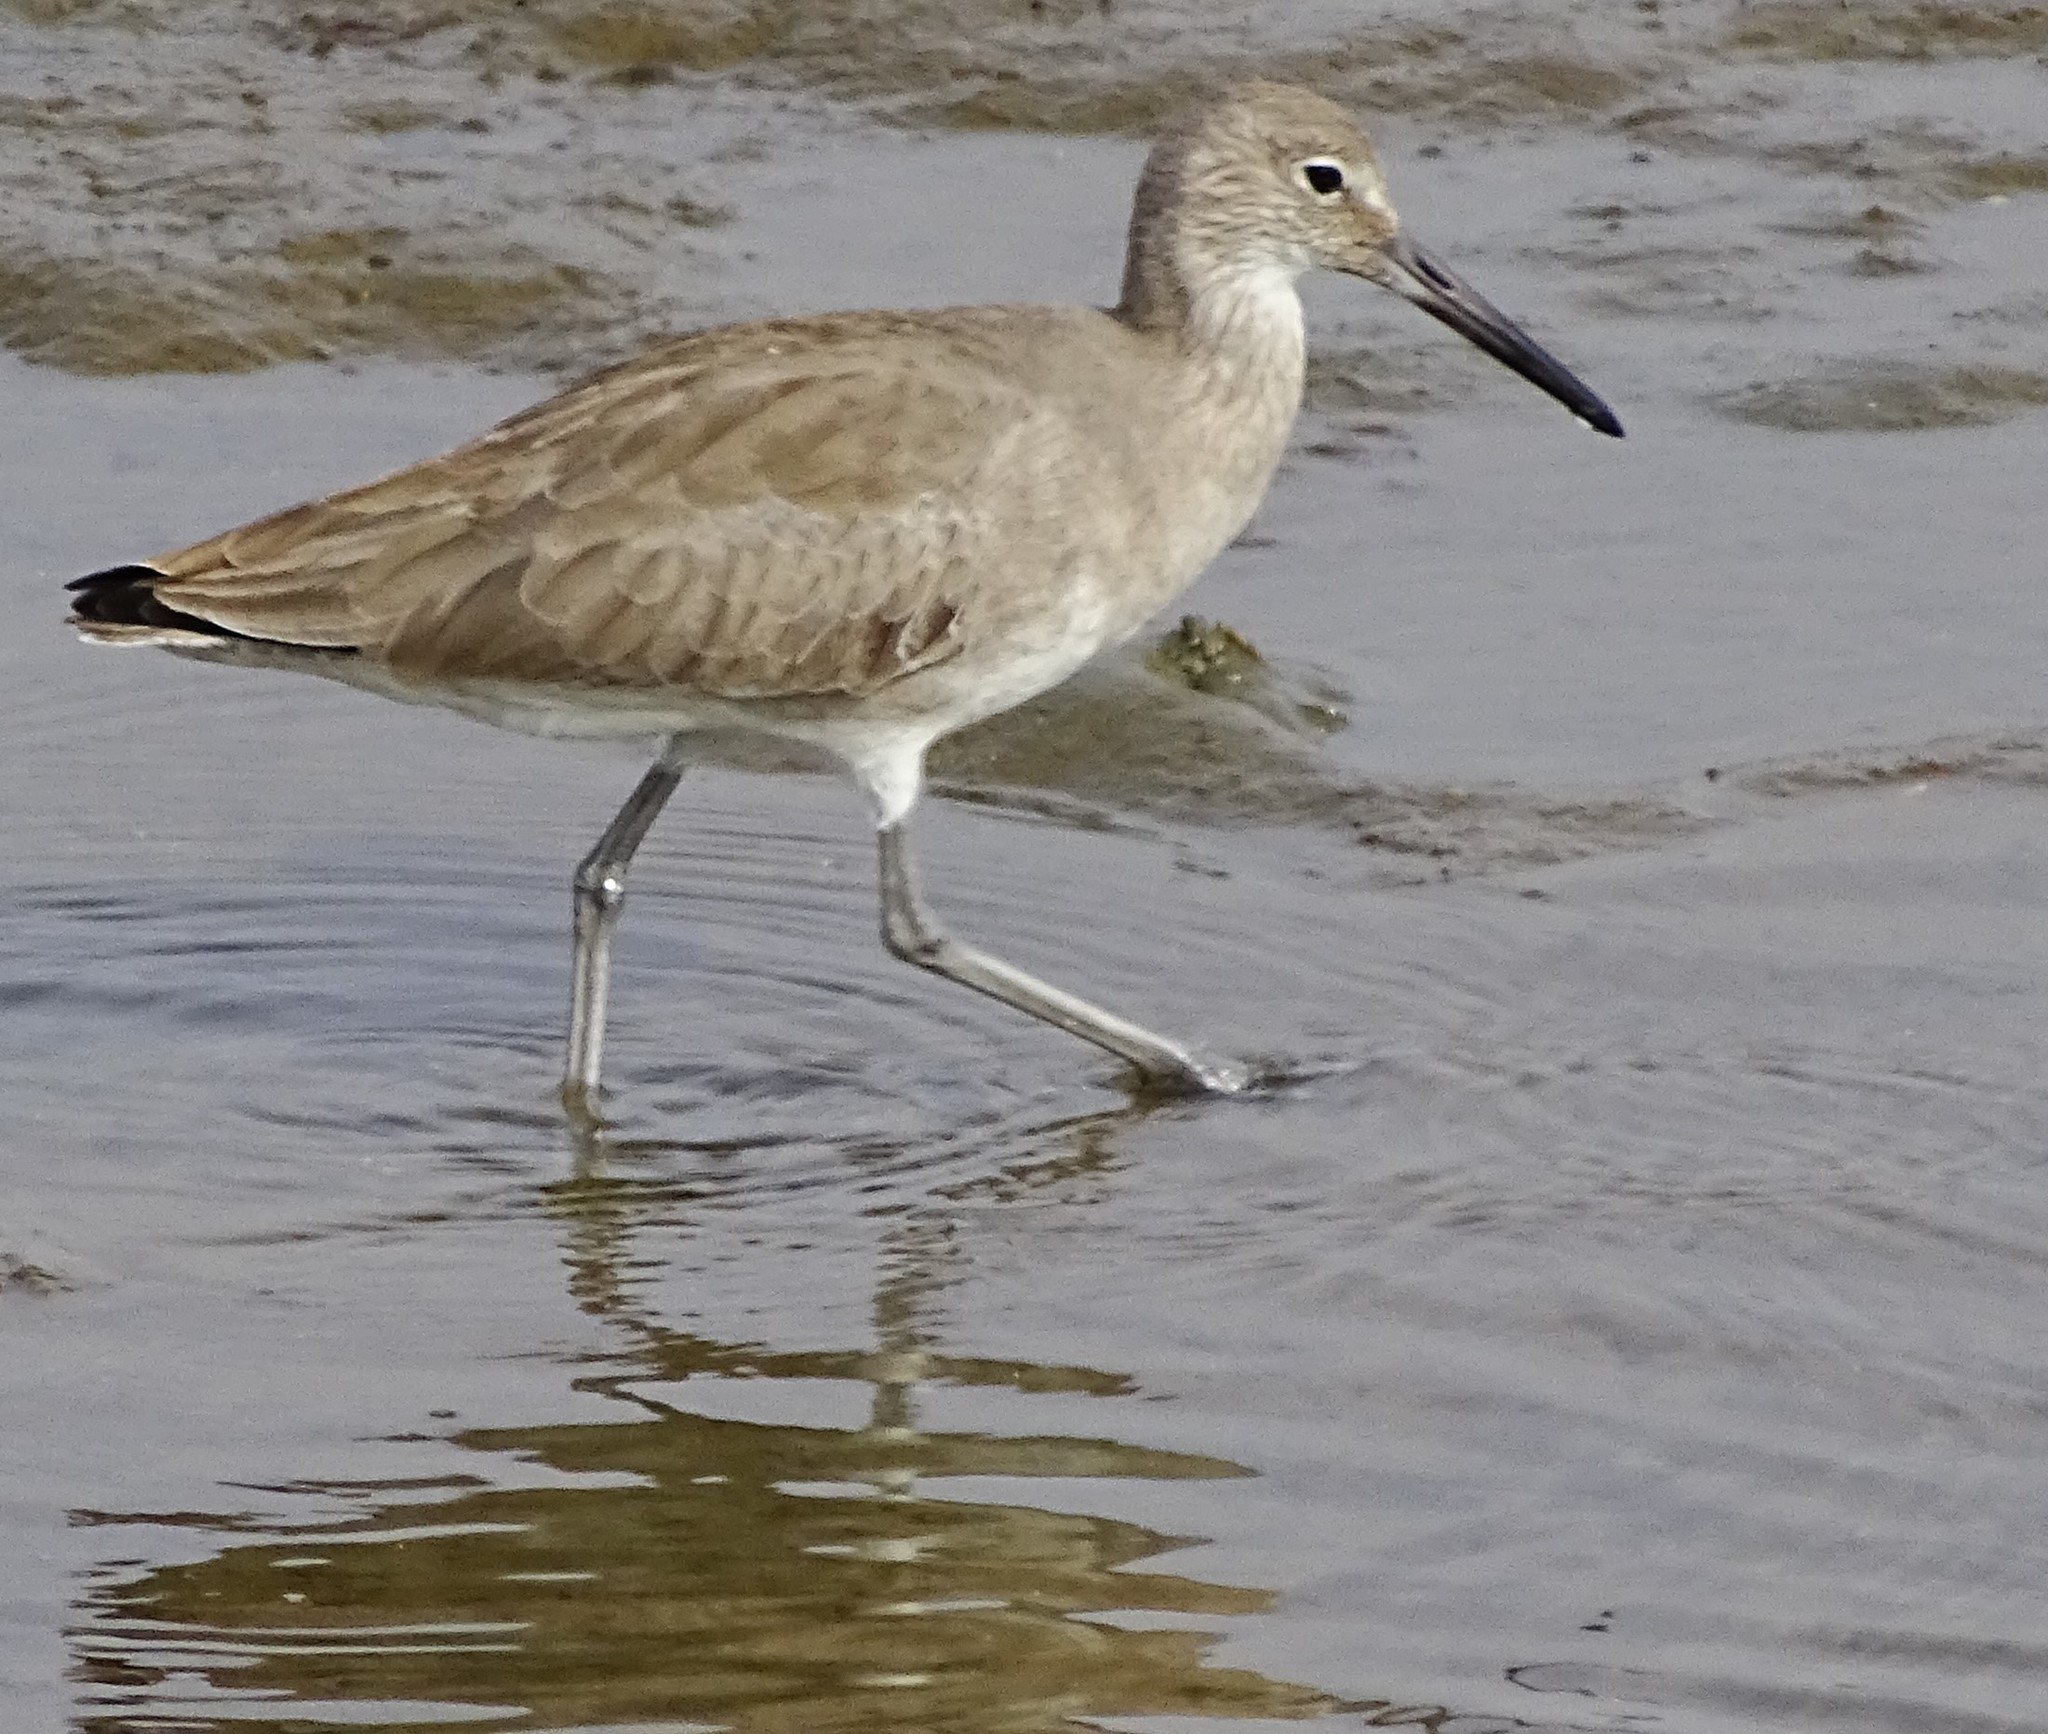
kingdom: Animalia
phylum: Chordata
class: Aves
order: Charadriiformes
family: Scolopacidae
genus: Tringa
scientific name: Tringa semipalmata
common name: Willet
